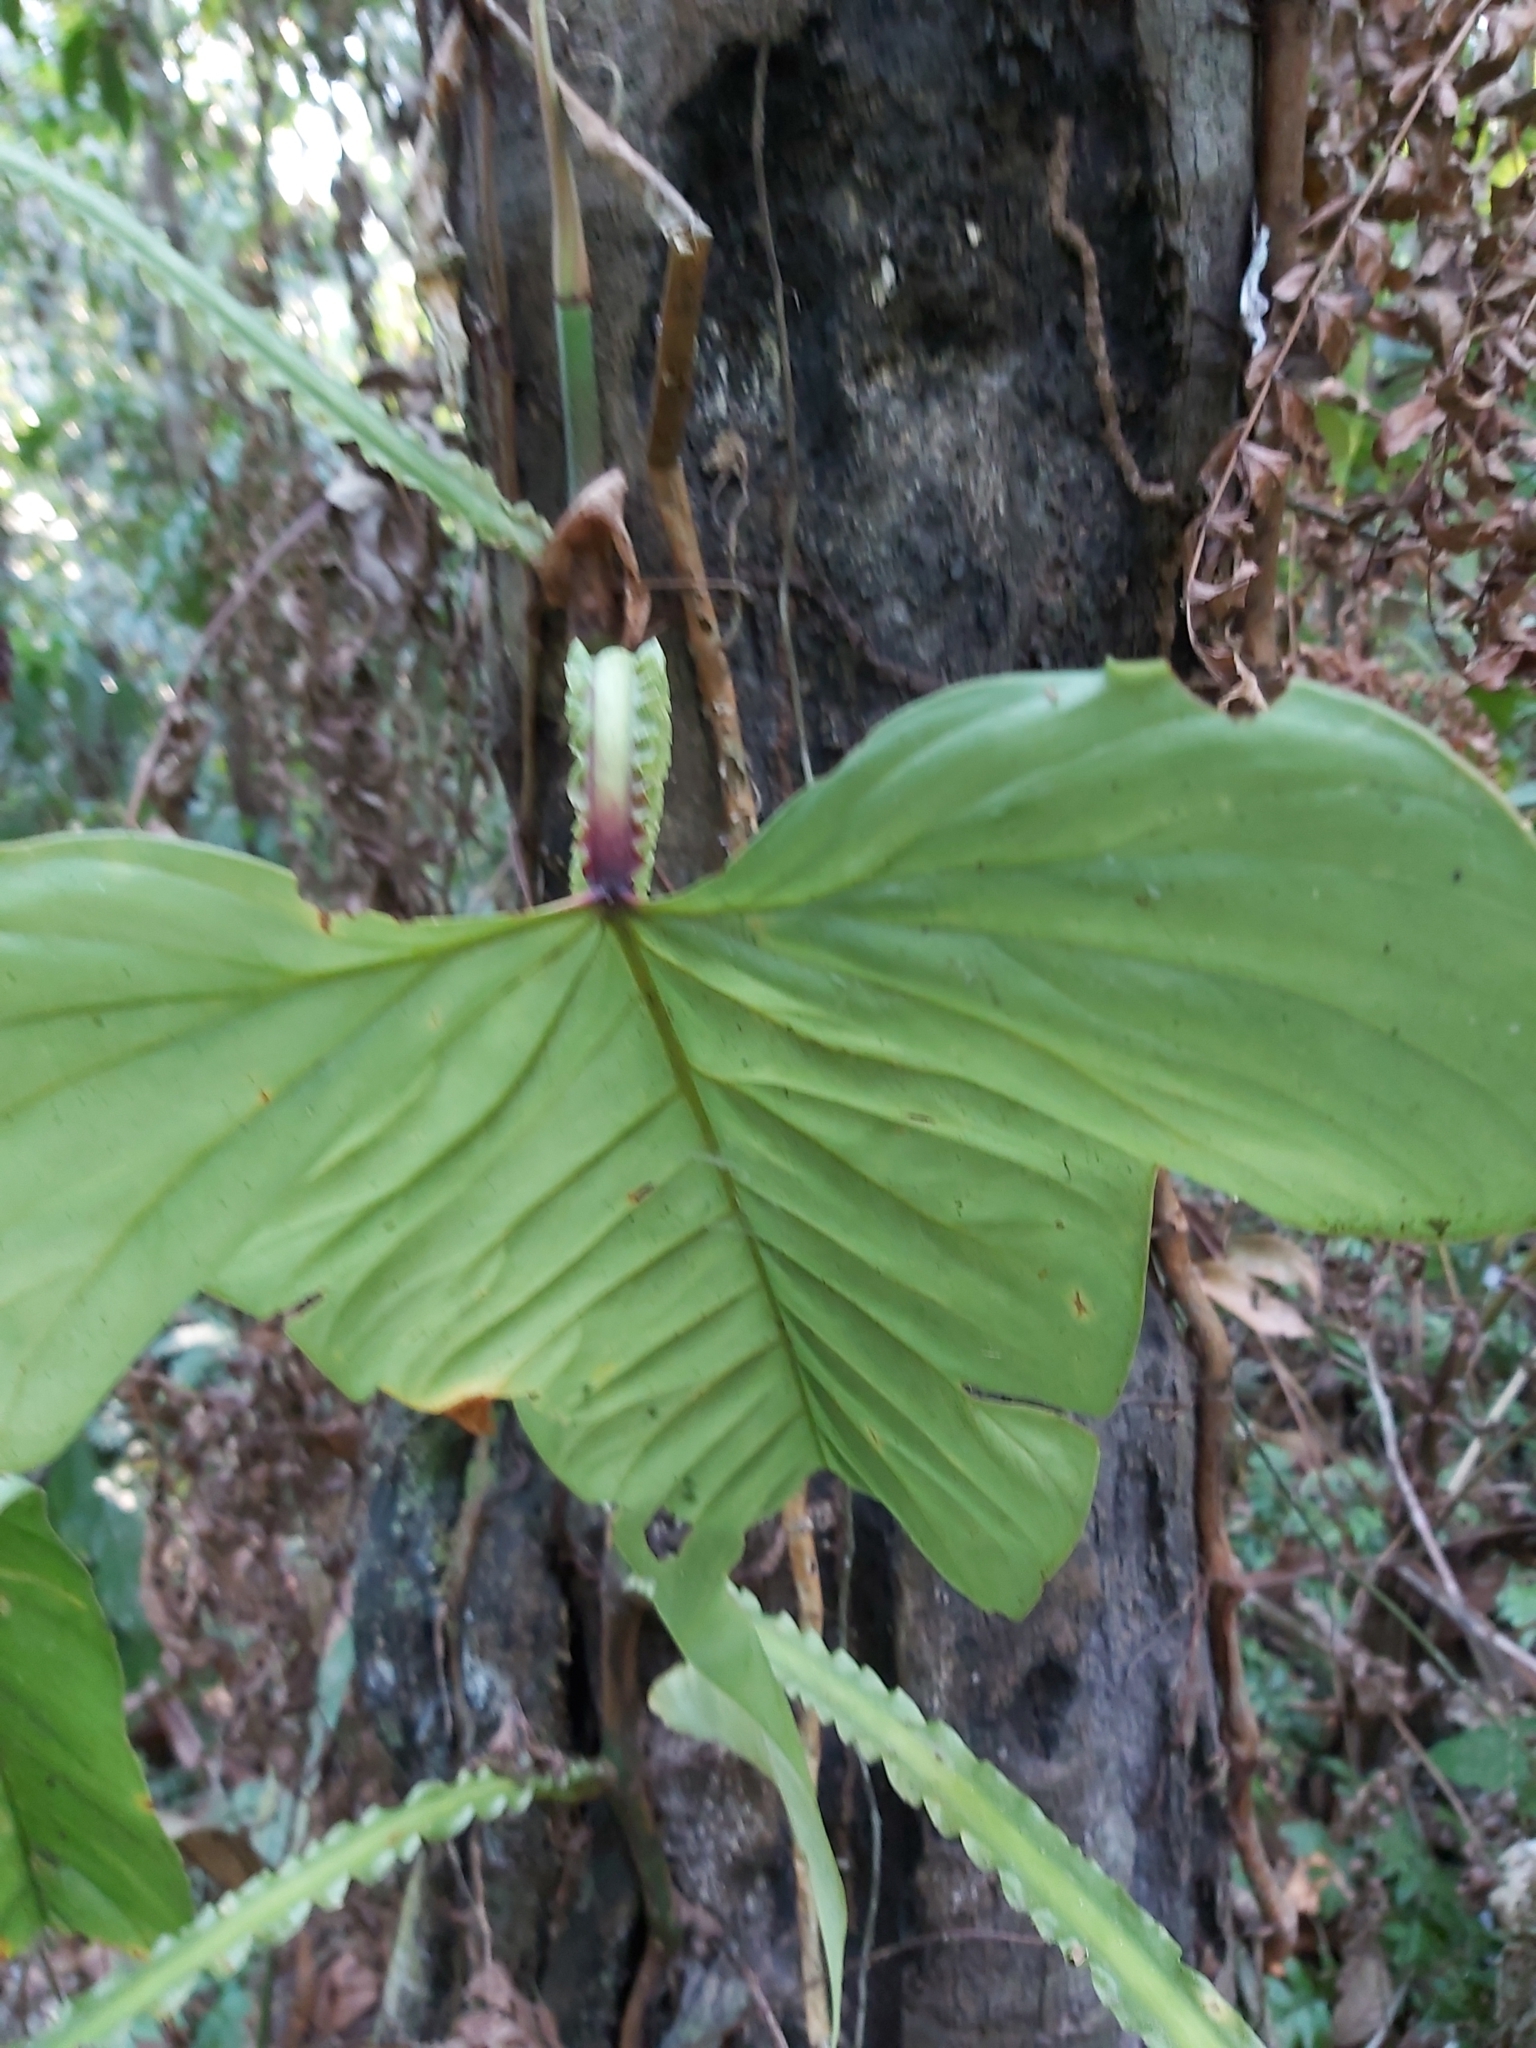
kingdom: Plantae
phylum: Tracheophyta
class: Liliopsida
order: Alismatales
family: Araceae
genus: Philodendron
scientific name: Philodendron ernestii
